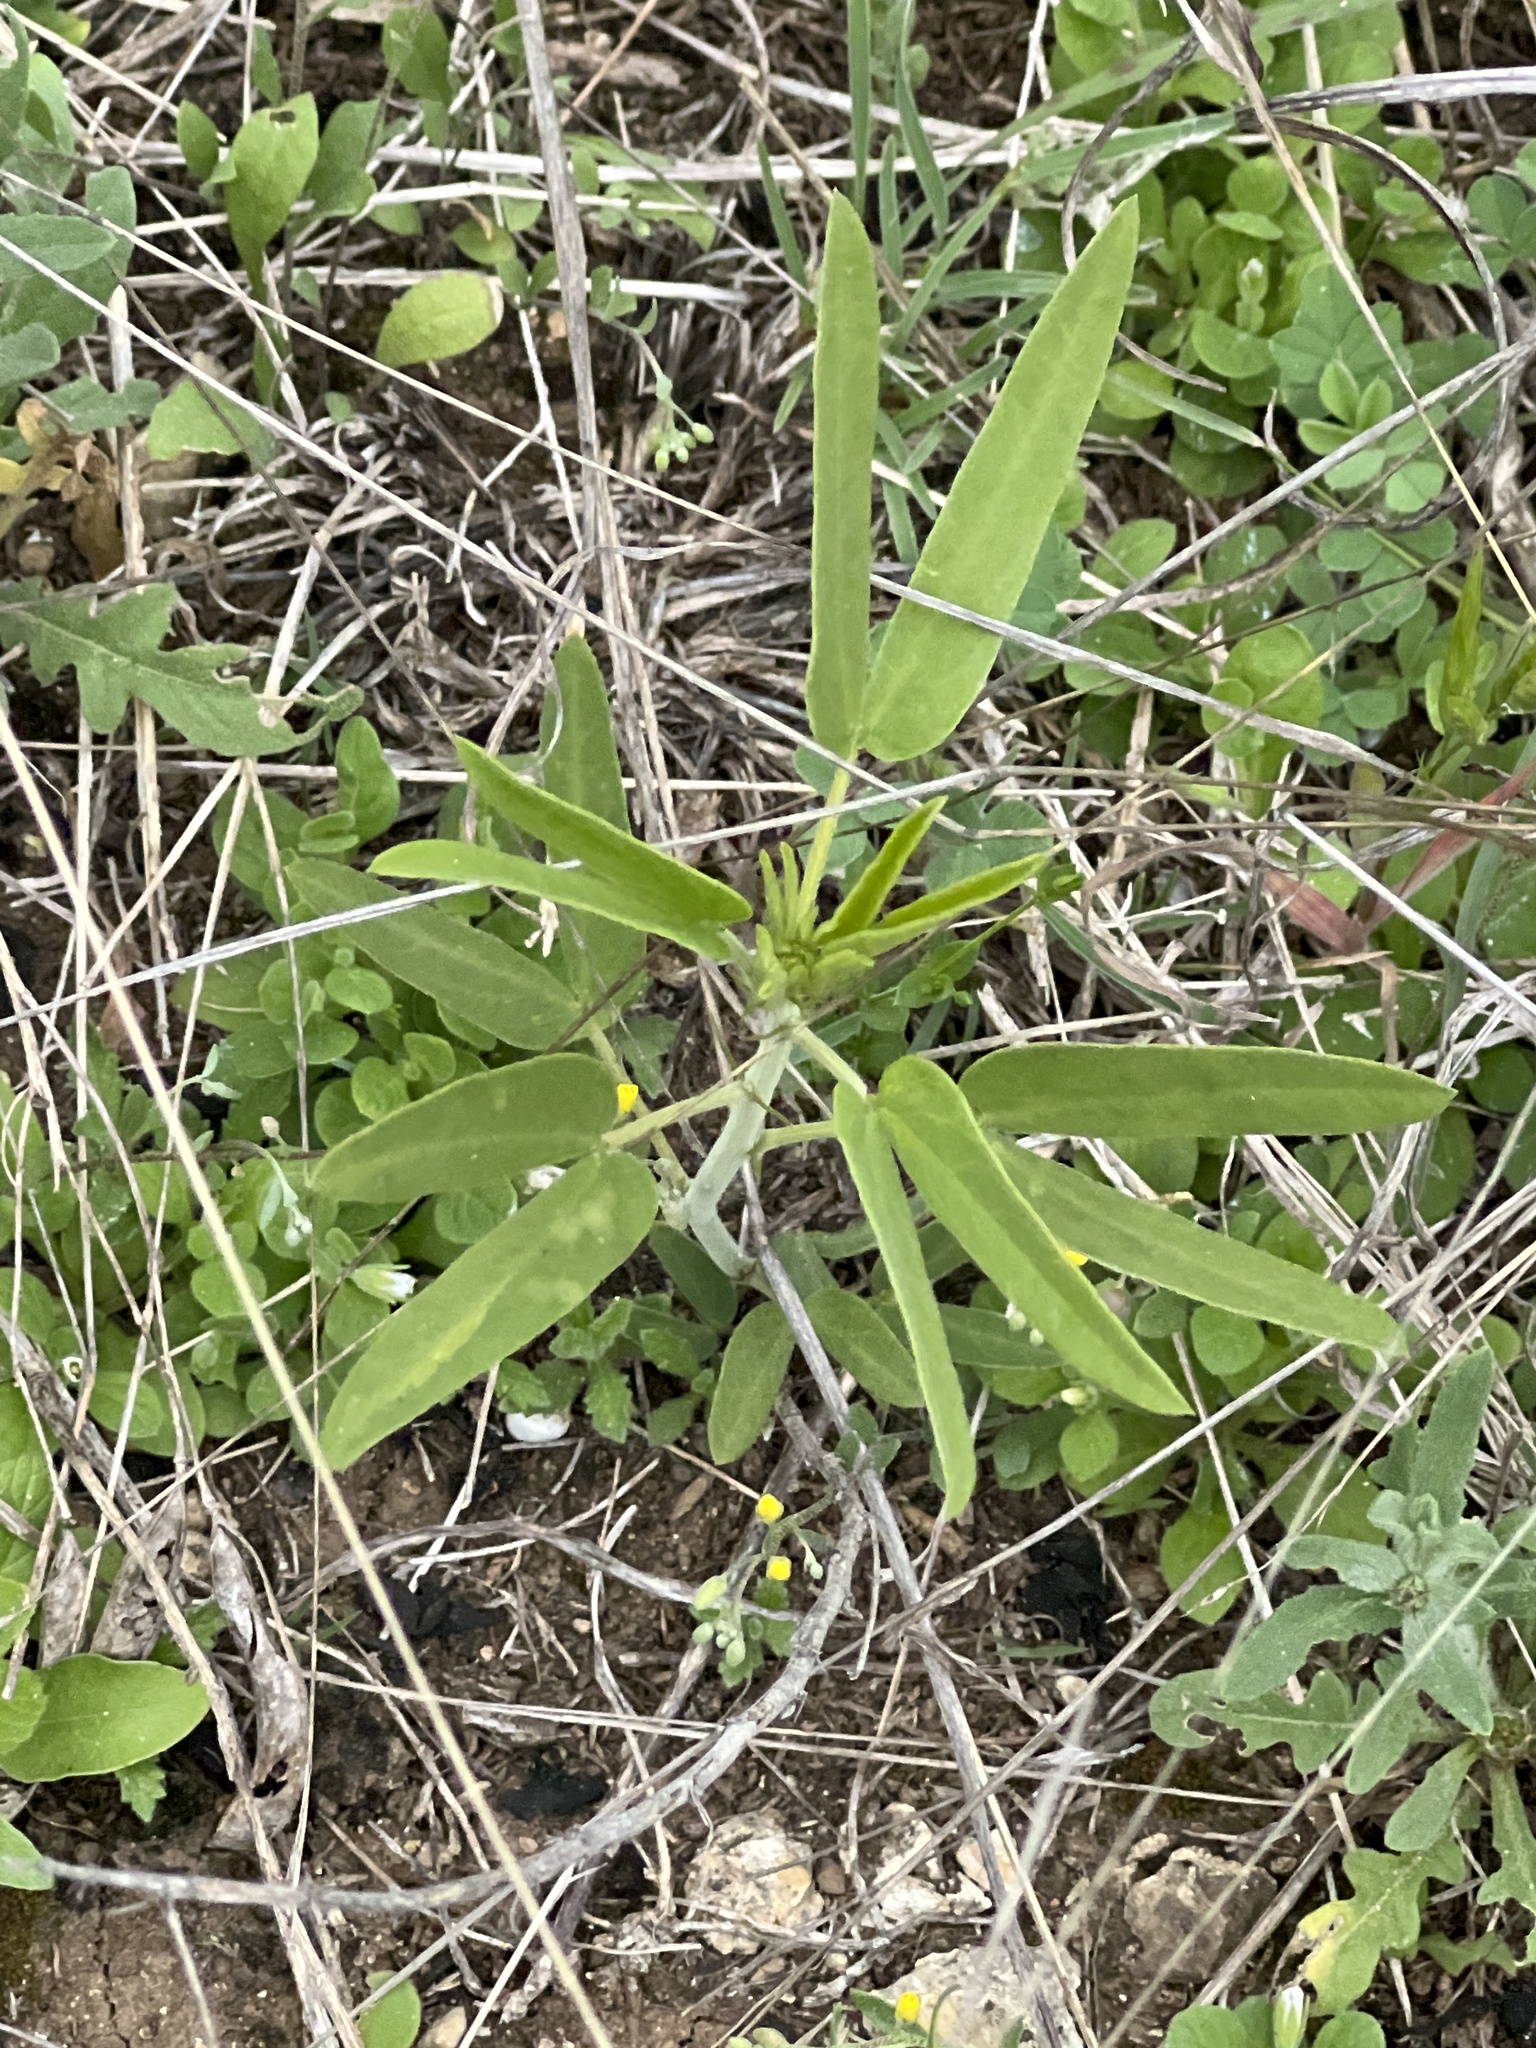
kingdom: Plantae
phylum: Tracheophyta
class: Magnoliopsida
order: Fabales
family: Fabaceae
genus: Senna
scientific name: Senna roemeriana
